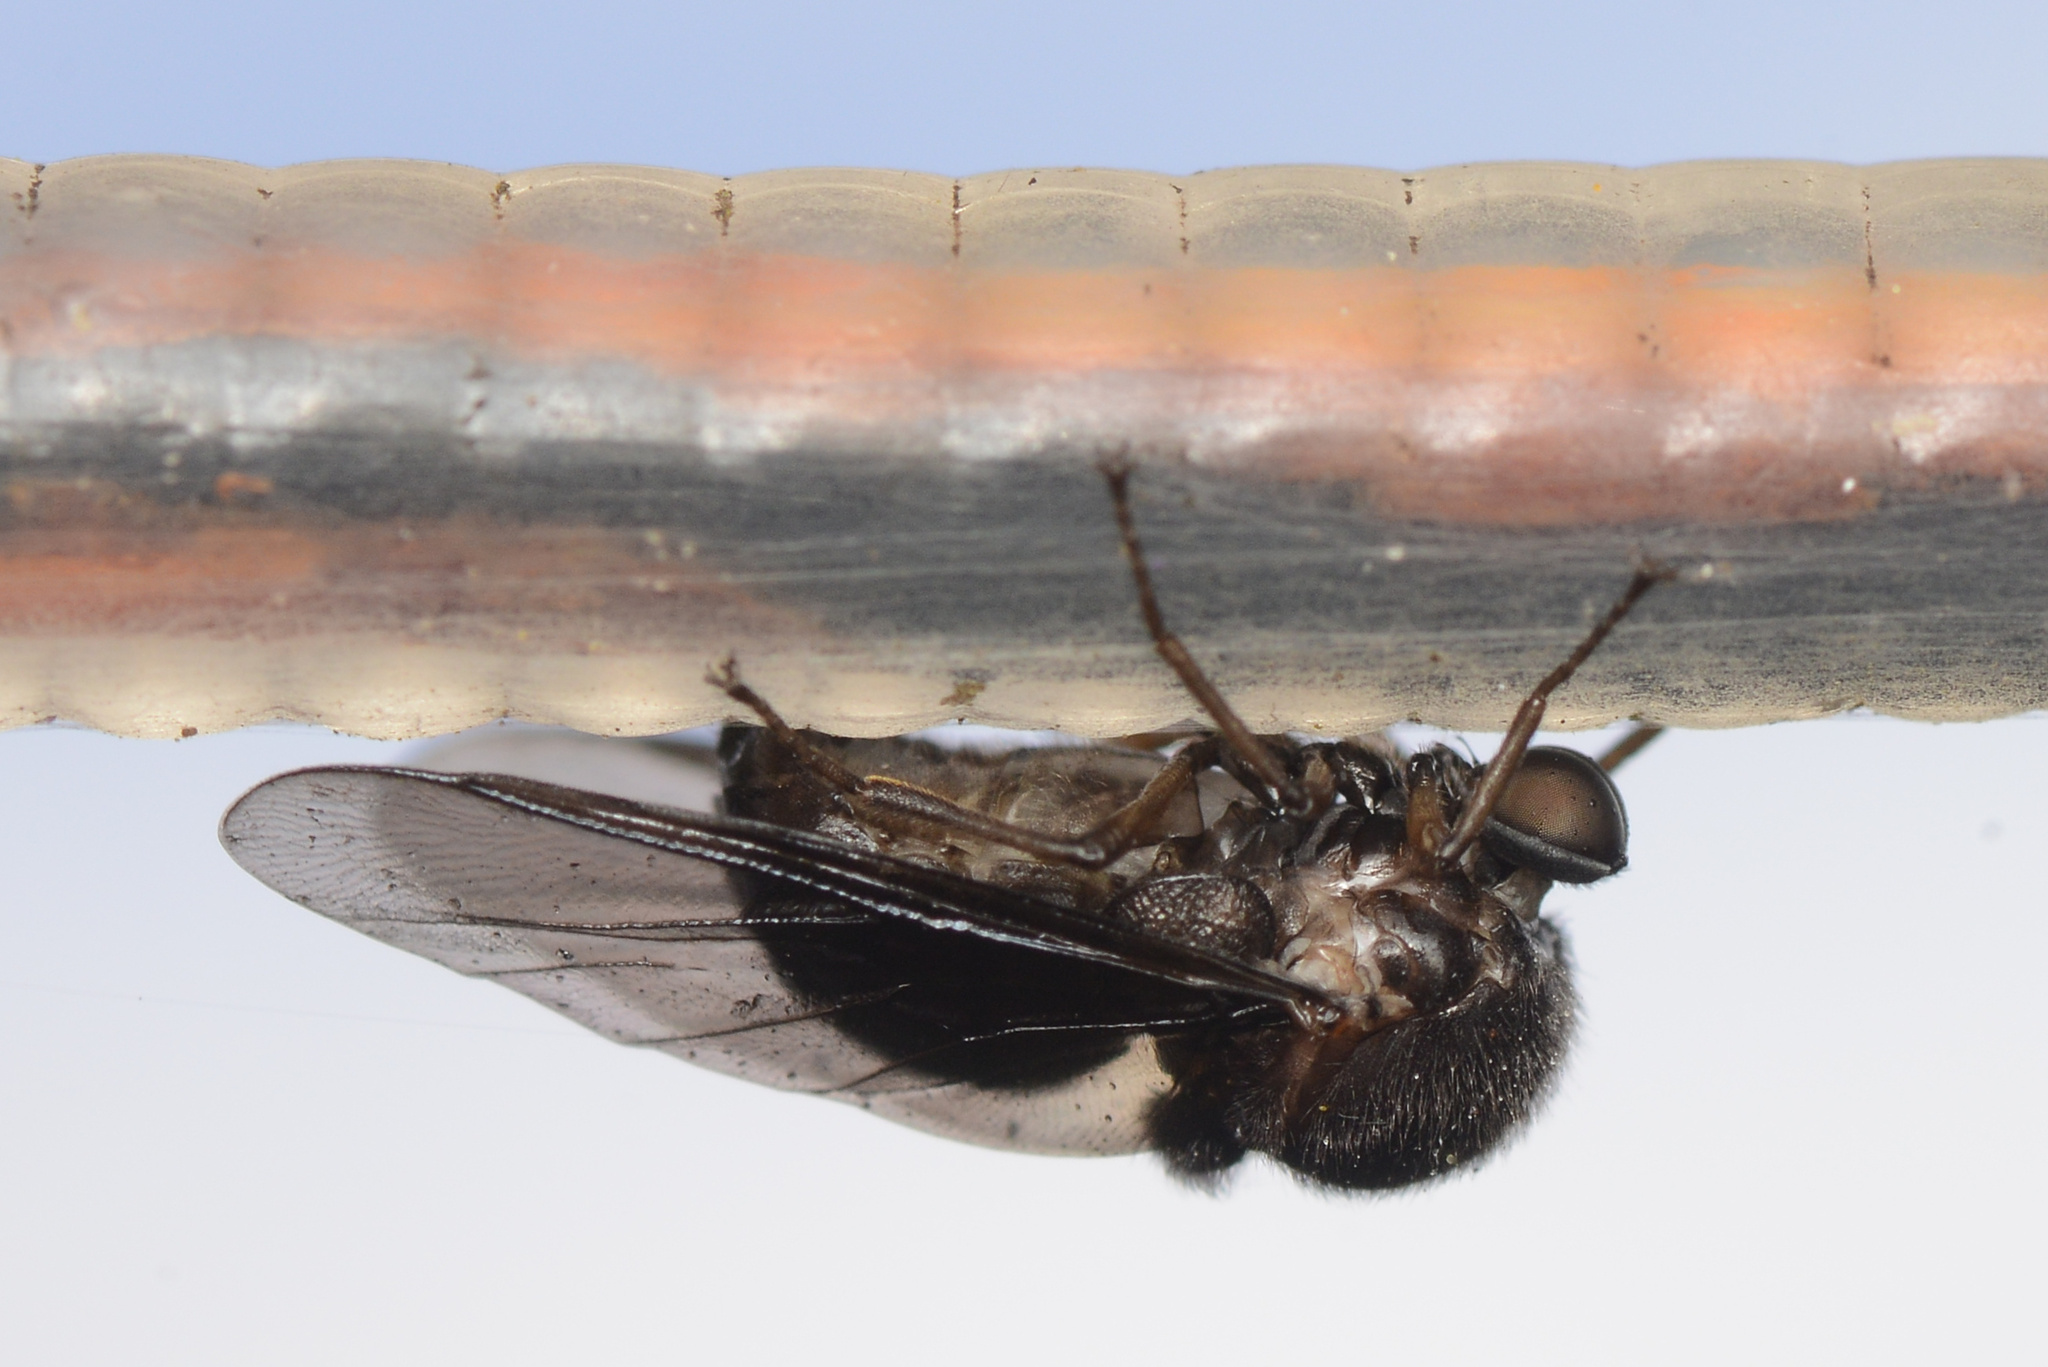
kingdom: Animalia
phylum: Arthropoda
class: Insecta
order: Diptera
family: Acroceridae
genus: Ogcodes
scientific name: Ogcodes paramonovi
